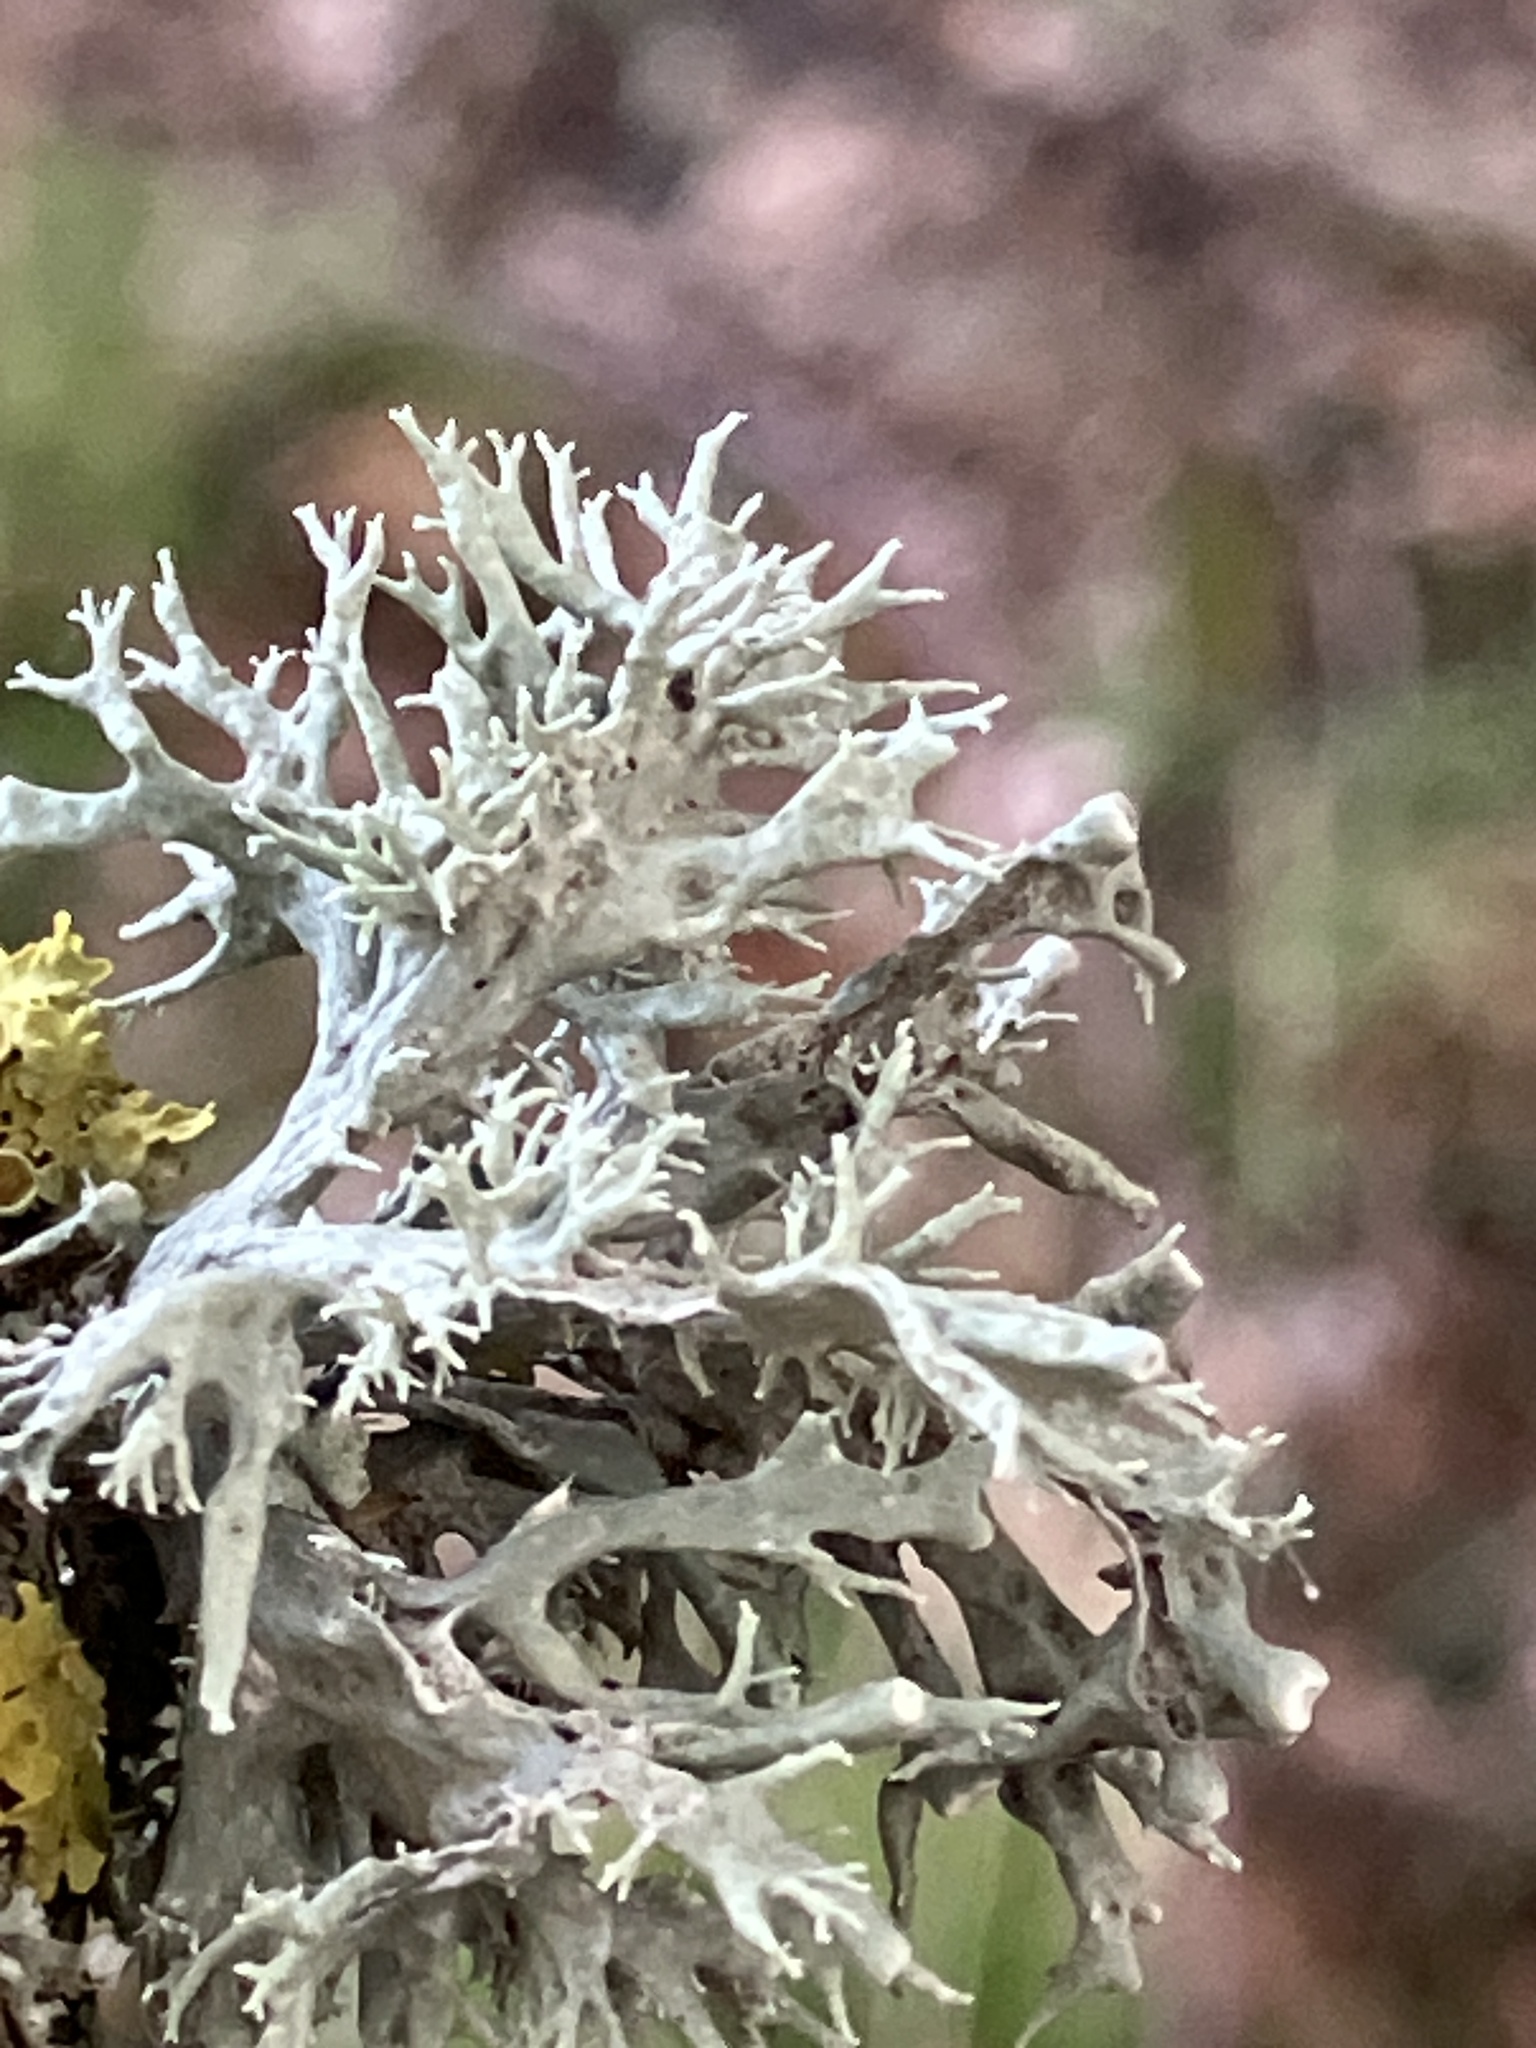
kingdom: Fungi
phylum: Ascomycota
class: Lecanoromycetes
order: Lecanorales
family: Ramalinaceae
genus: Ramalina
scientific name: Ramalina fastigiata
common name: Dotted ribbon lichen
